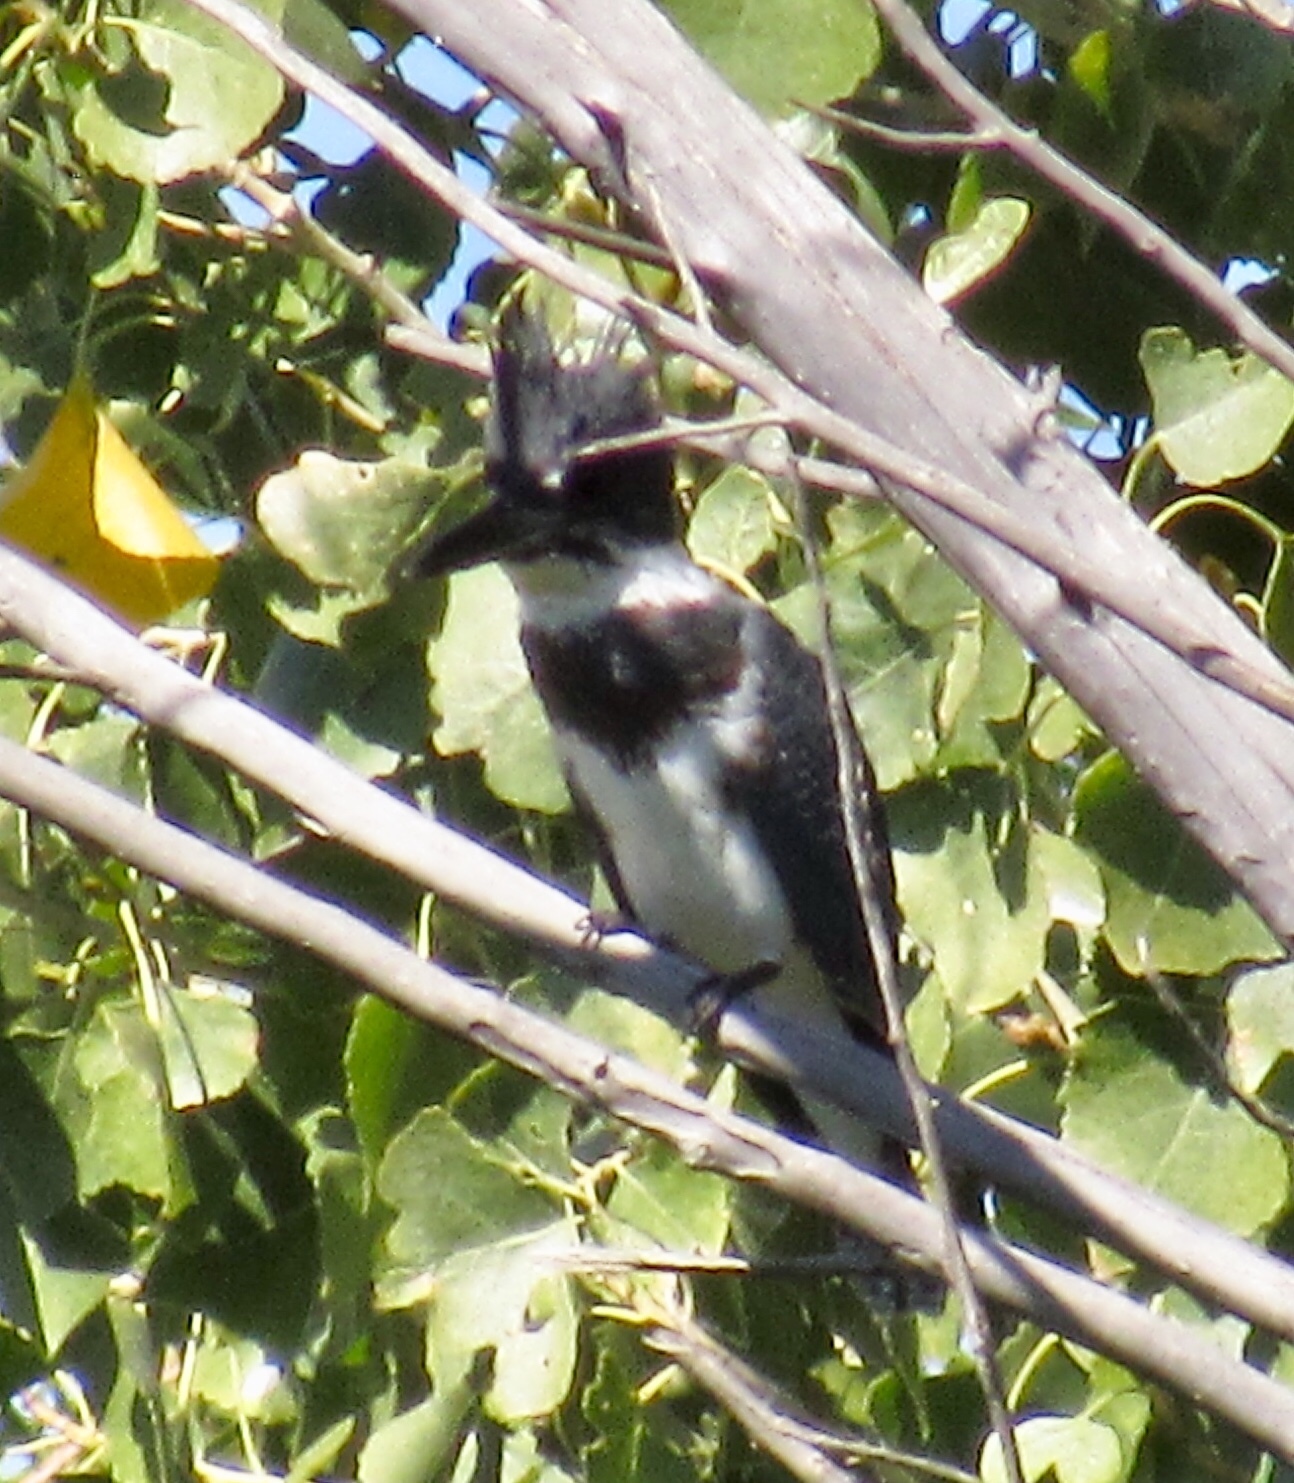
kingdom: Animalia
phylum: Chordata
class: Aves
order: Coraciiformes
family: Alcedinidae
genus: Megaceryle
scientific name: Megaceryle alcyon
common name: Belted kingfisher
